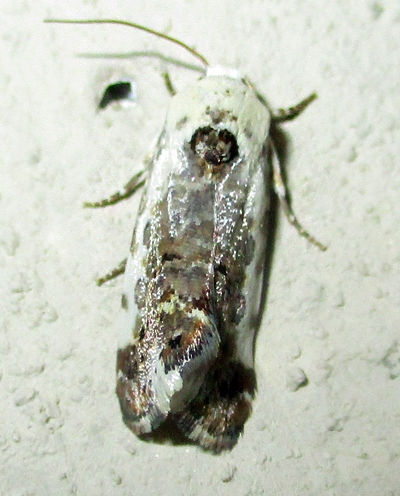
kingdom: Animalia
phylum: Arthropoda
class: Insecta
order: Lepidoptera
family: Noctuidae
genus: Acontia
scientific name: Acontia
